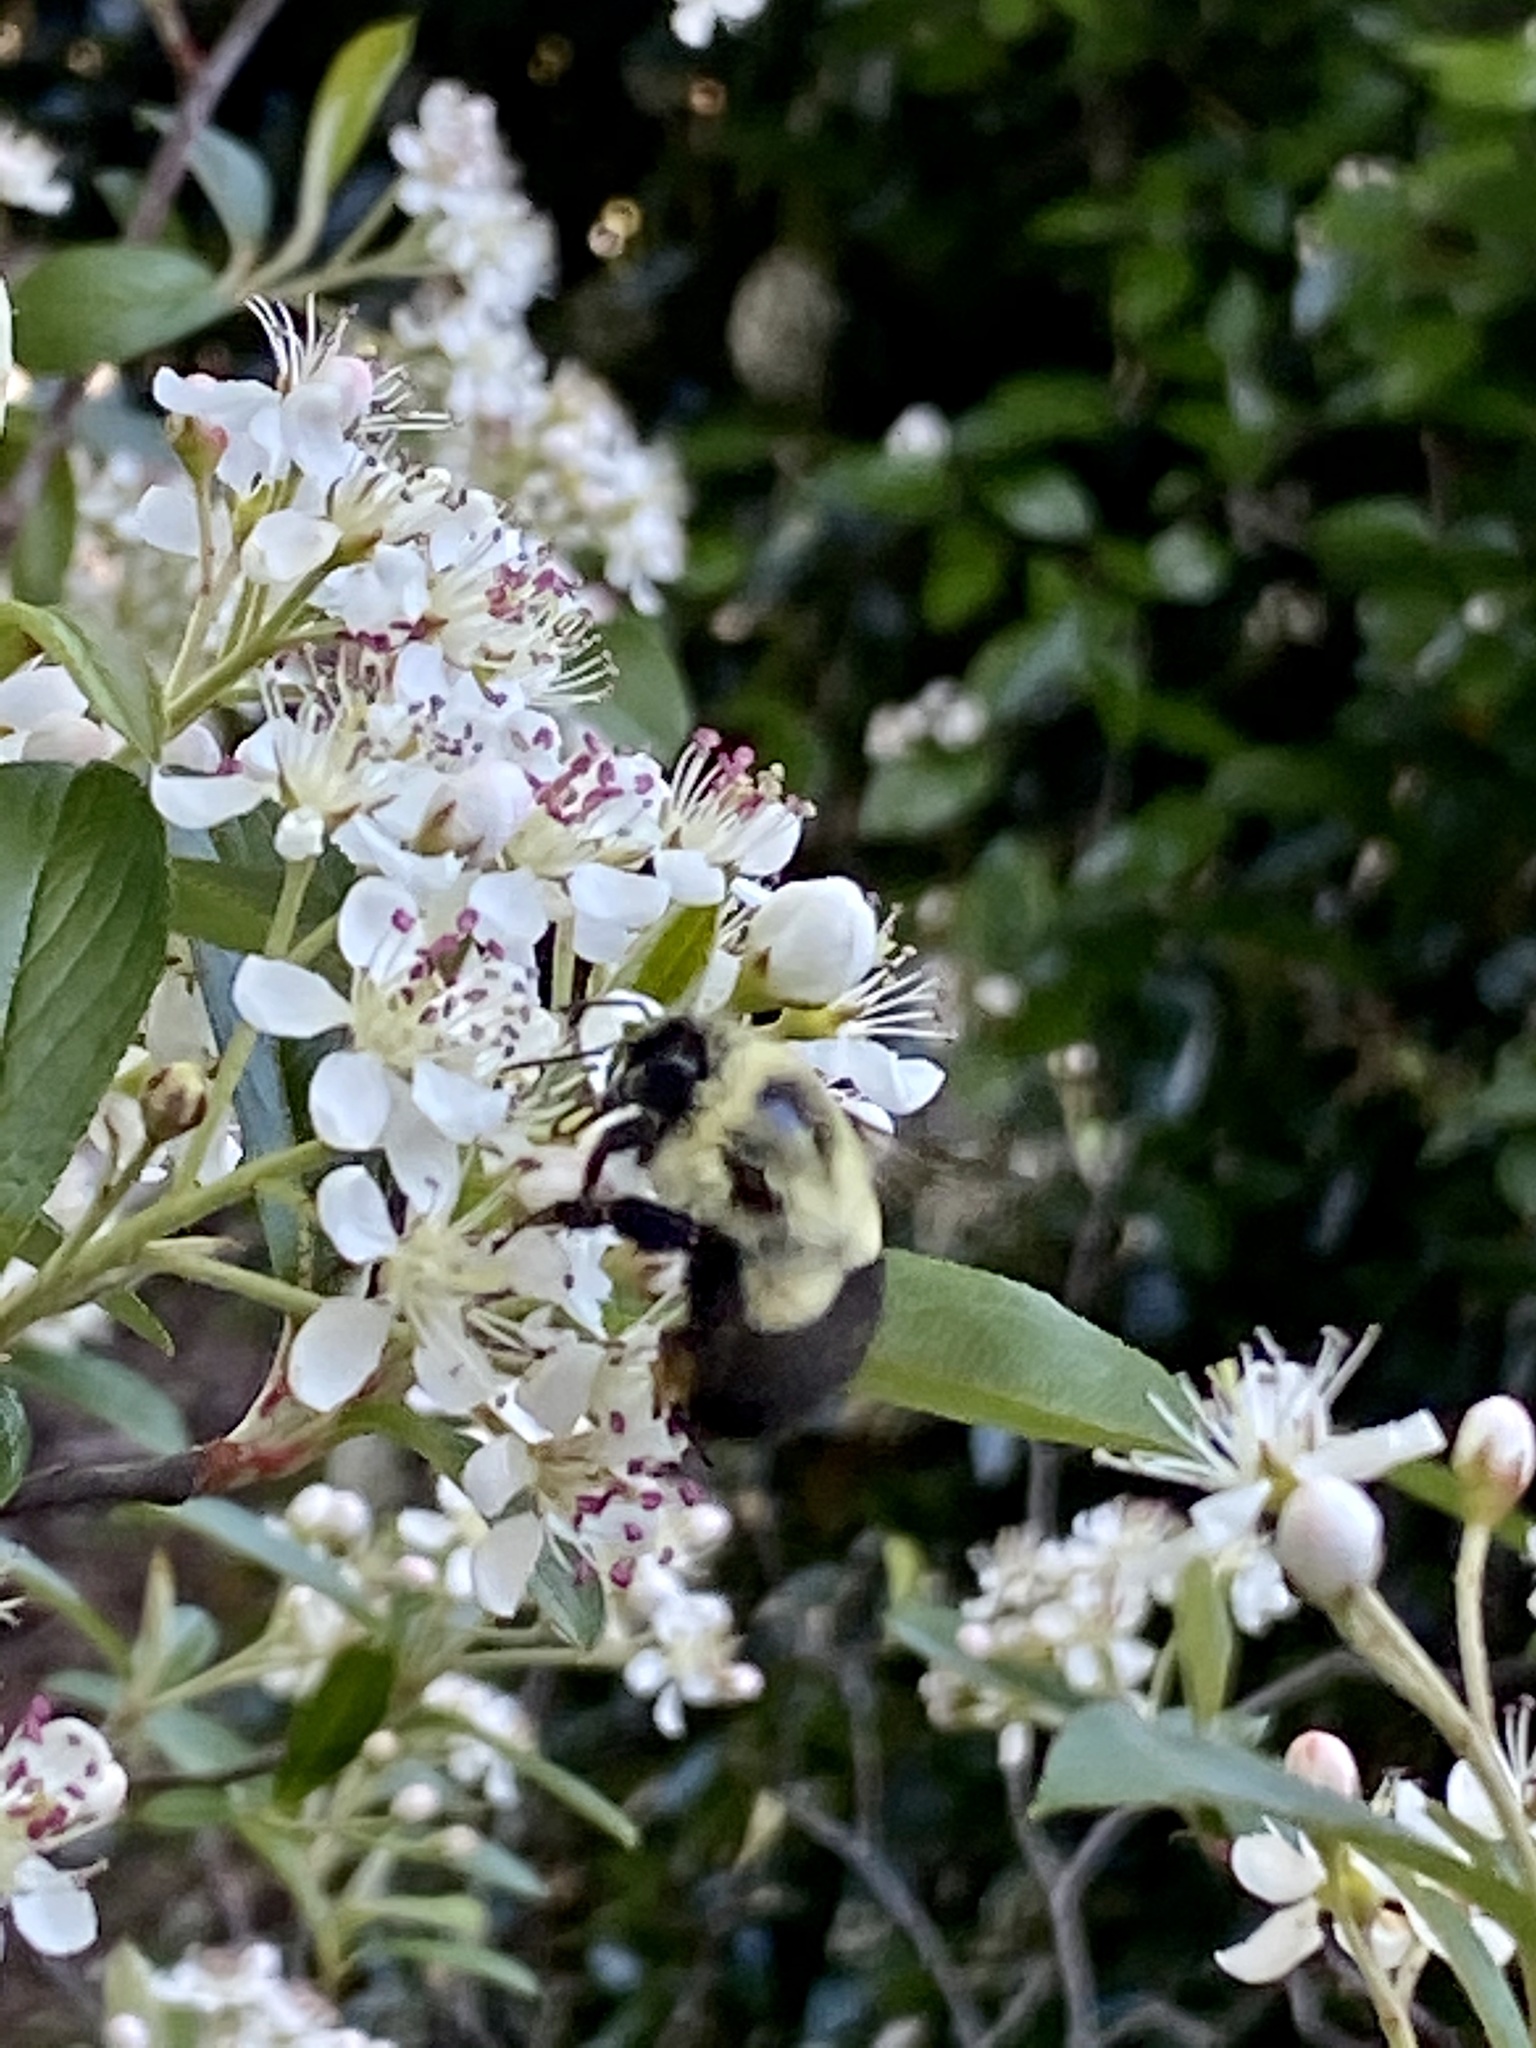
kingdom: Animalia
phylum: Arthropoda
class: Insecta
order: Hymenoptera
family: Apidae
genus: Bombus
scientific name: Bombus impatiens
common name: Common eastern bumble bee
